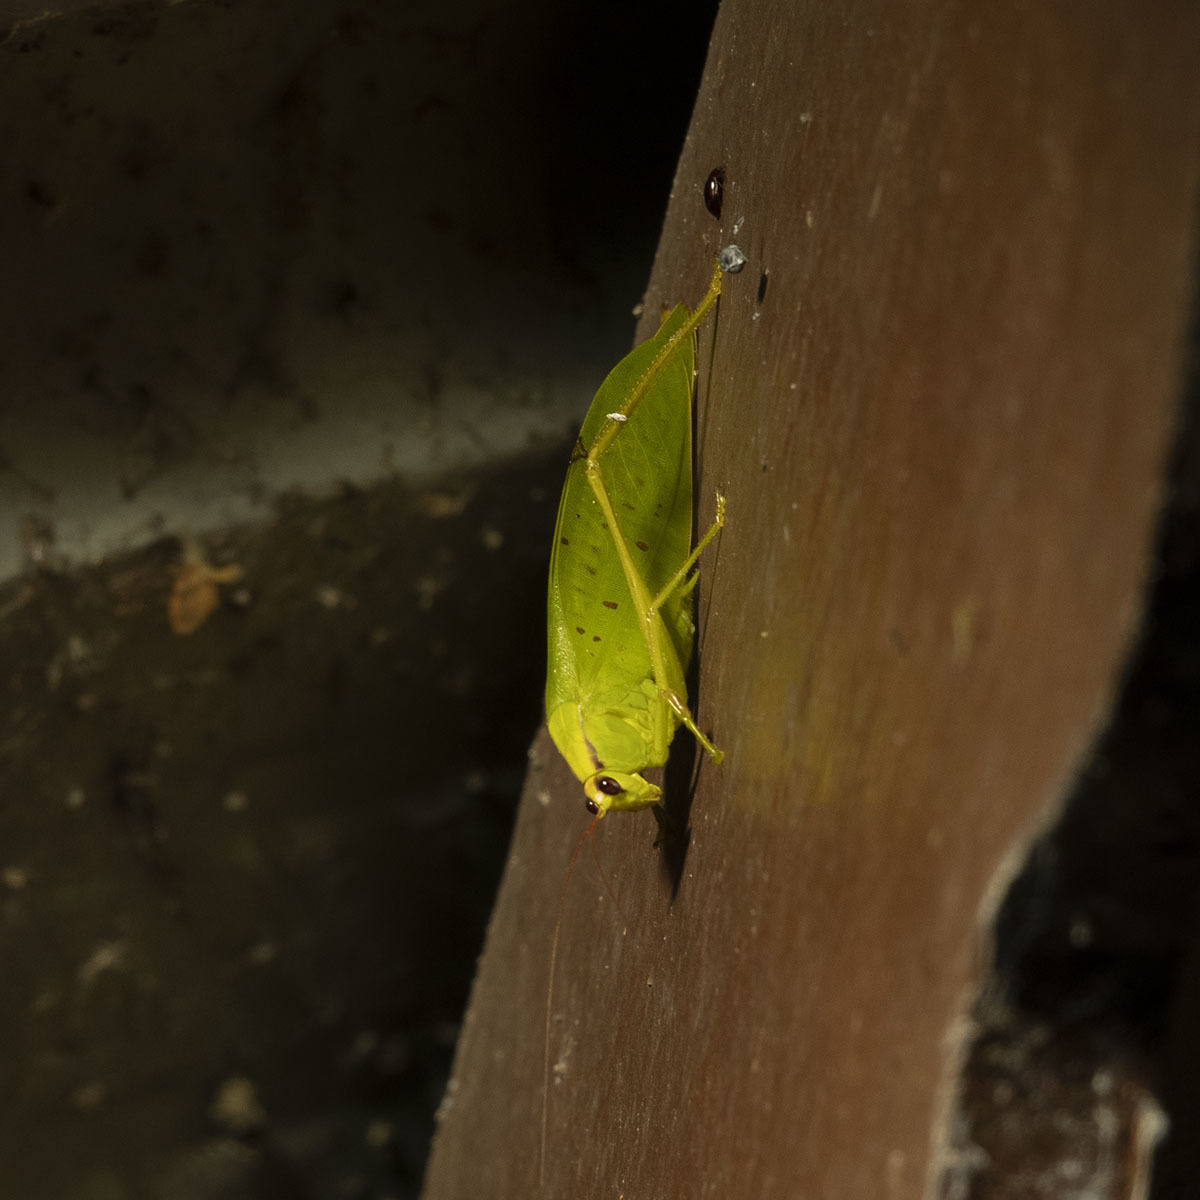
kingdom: Animalia
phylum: Arthropoda
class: Insecta
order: Orthoptera
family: Tettigoniidae
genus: Rectimarginalis
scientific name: Rectimarginalis profunda
